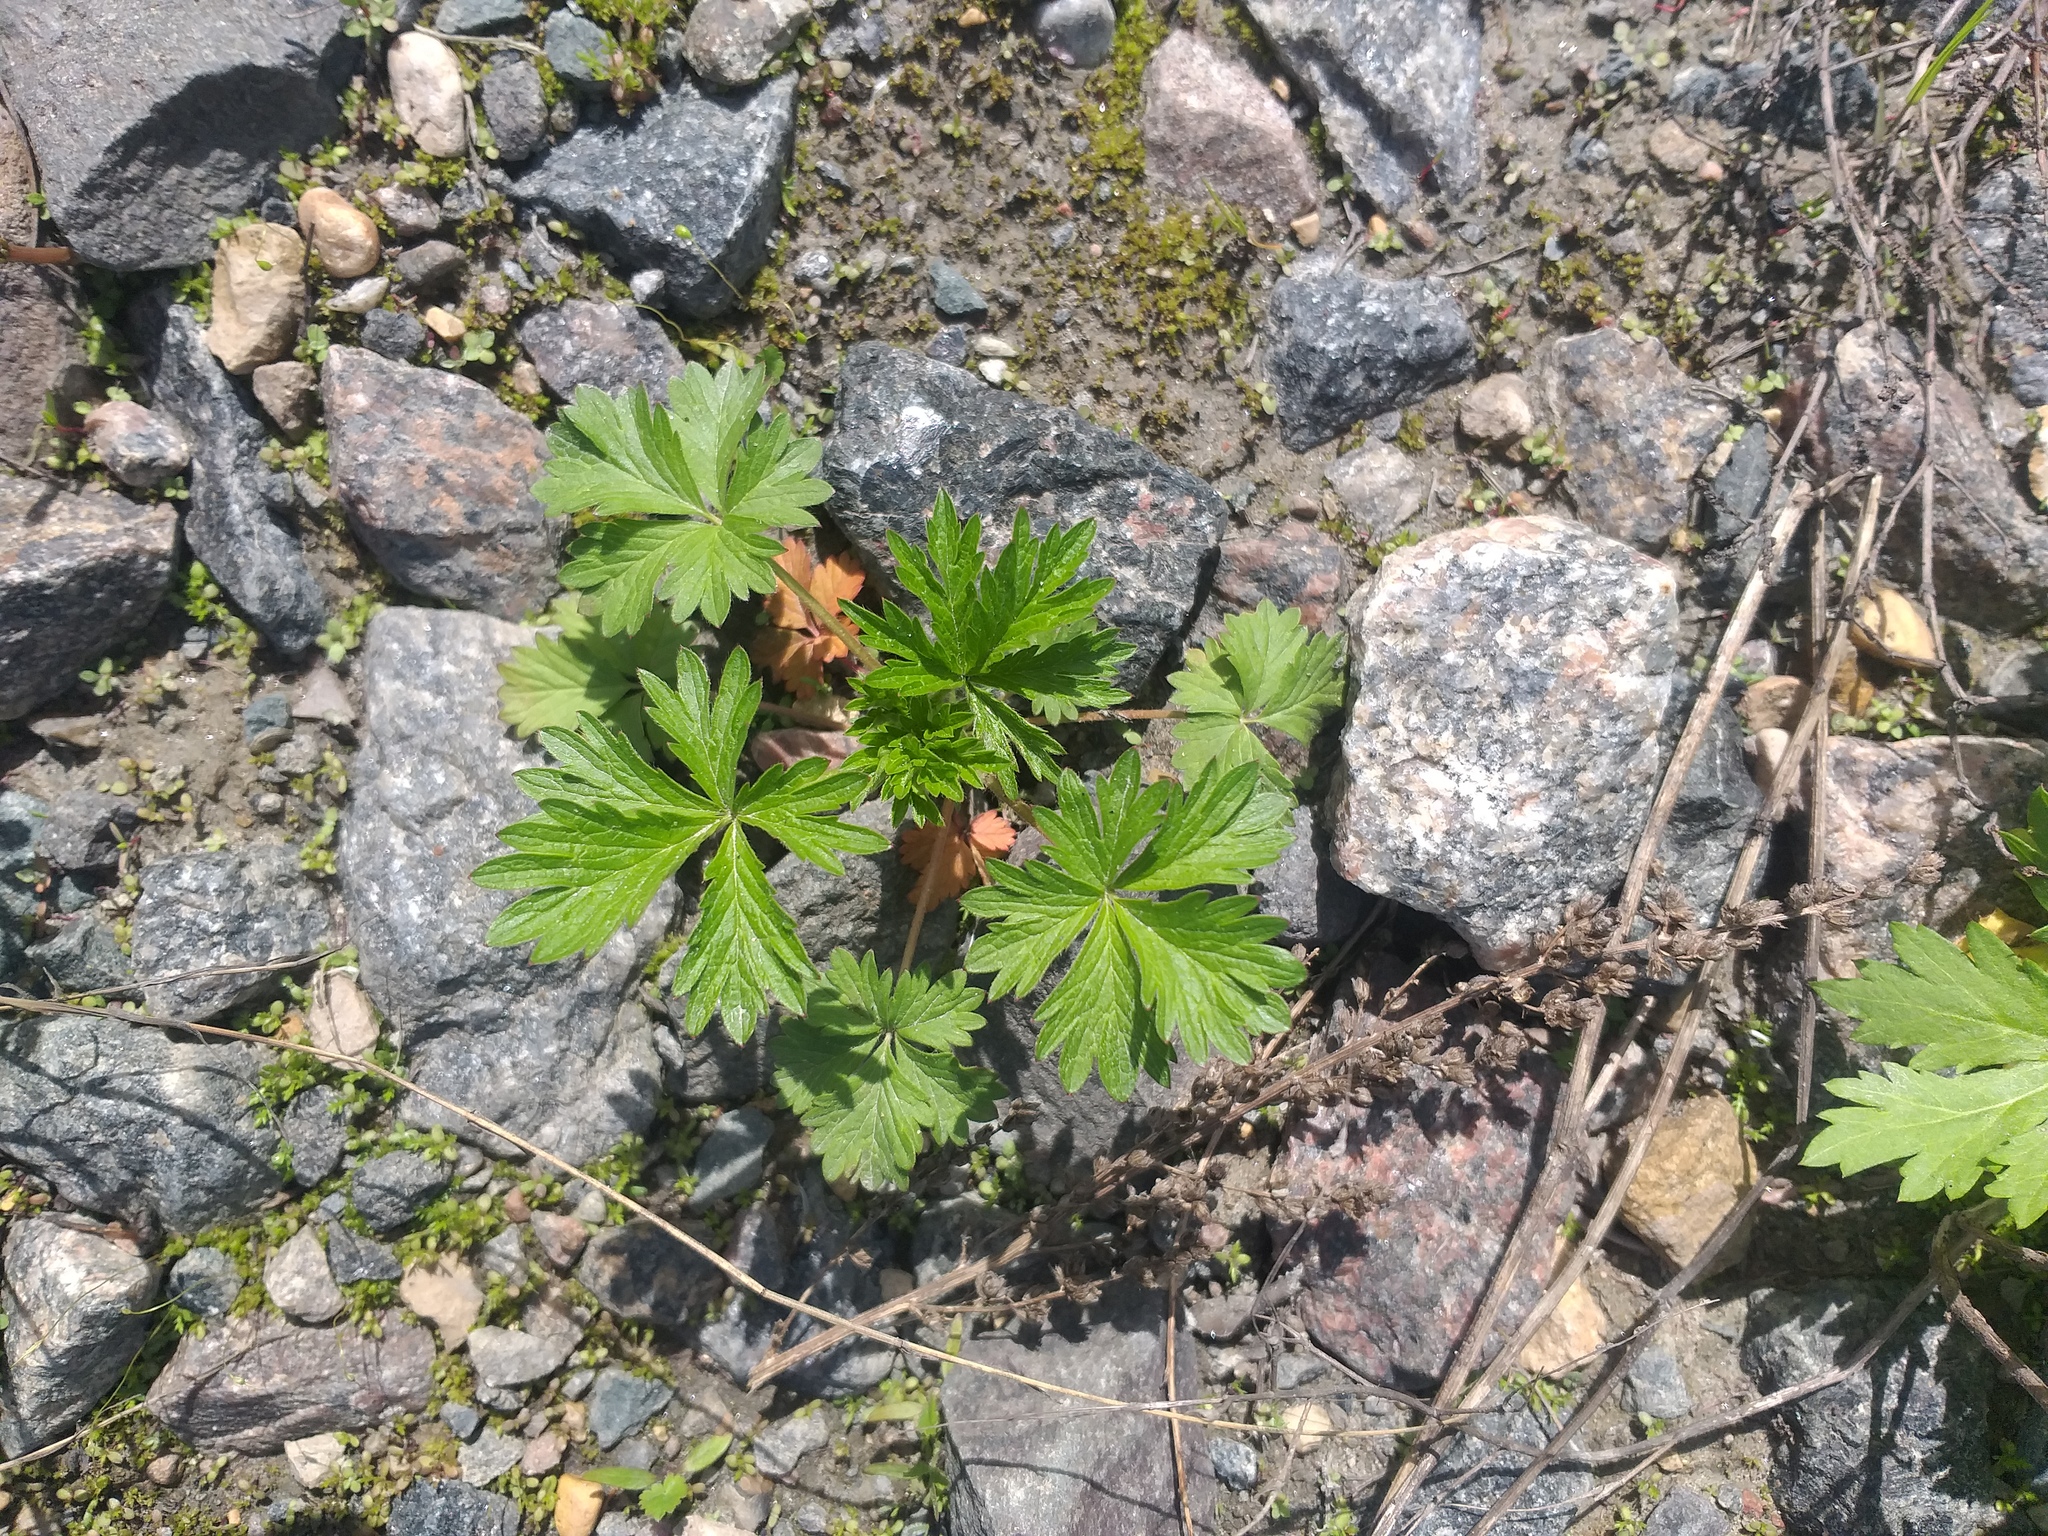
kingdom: Plantae
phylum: Tracheophyta
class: Magnoliopsida
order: Rosales
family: Rosaceae
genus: Potentilla
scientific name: Potentilla intermedia
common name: Downy cinquefoil
